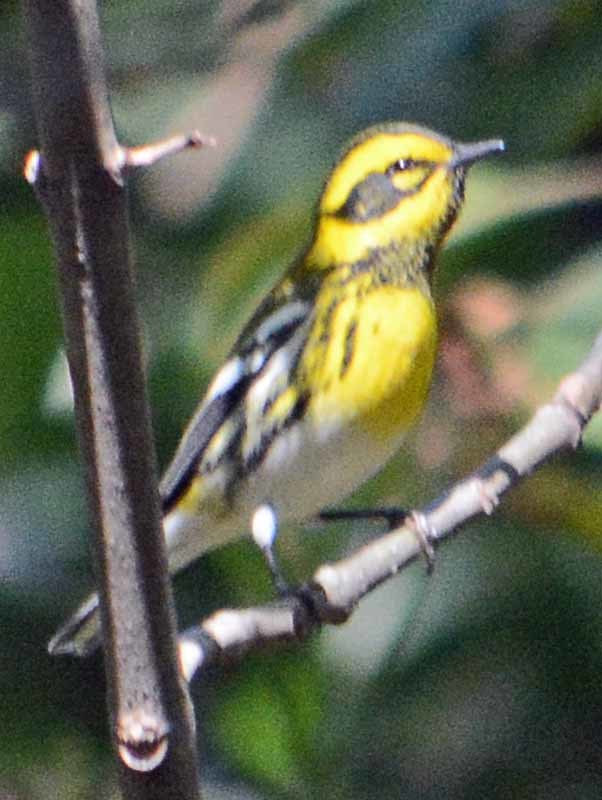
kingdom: Animalia
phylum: Chordata
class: Aves
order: Passeriformes
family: Parulidae
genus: Setophaga
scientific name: Setophaga townsendi
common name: Townsend's warbler
